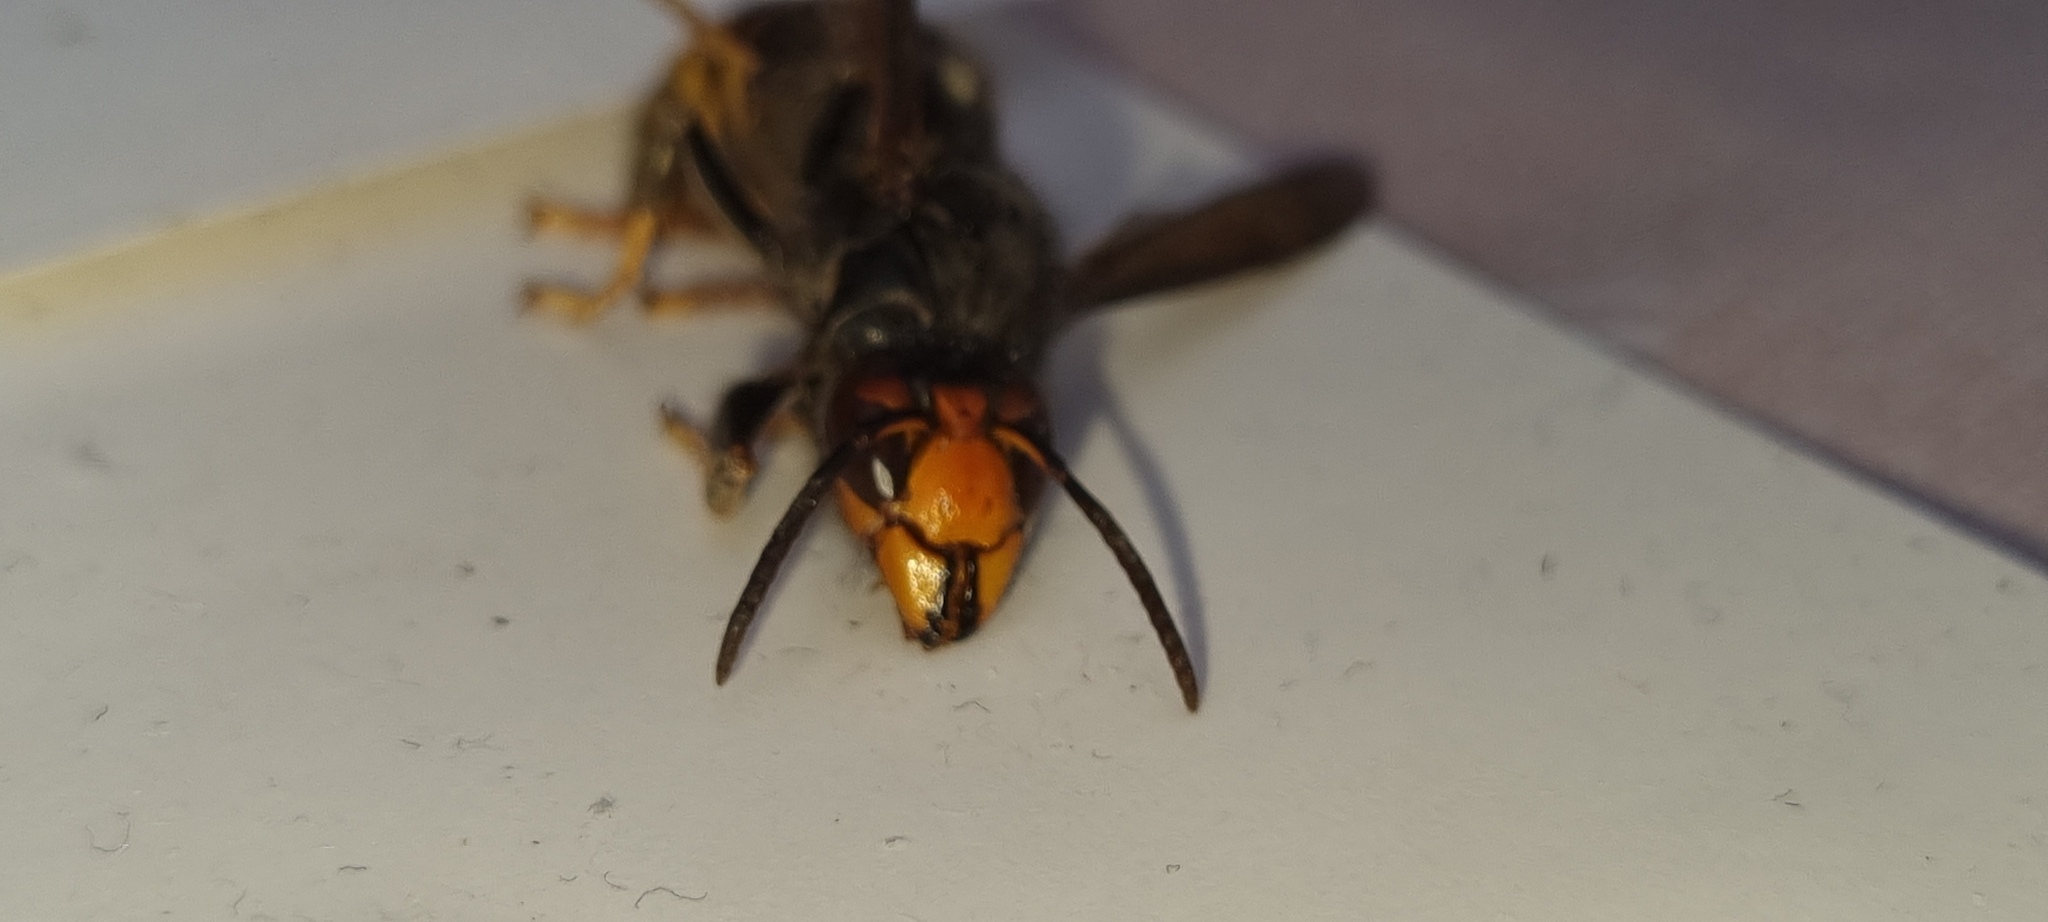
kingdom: Animalia
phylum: Arthropoda
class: Insecta
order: Hymenoptera
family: Vespidae
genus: Vespa
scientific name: Vespa velutina
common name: Asian hornet
